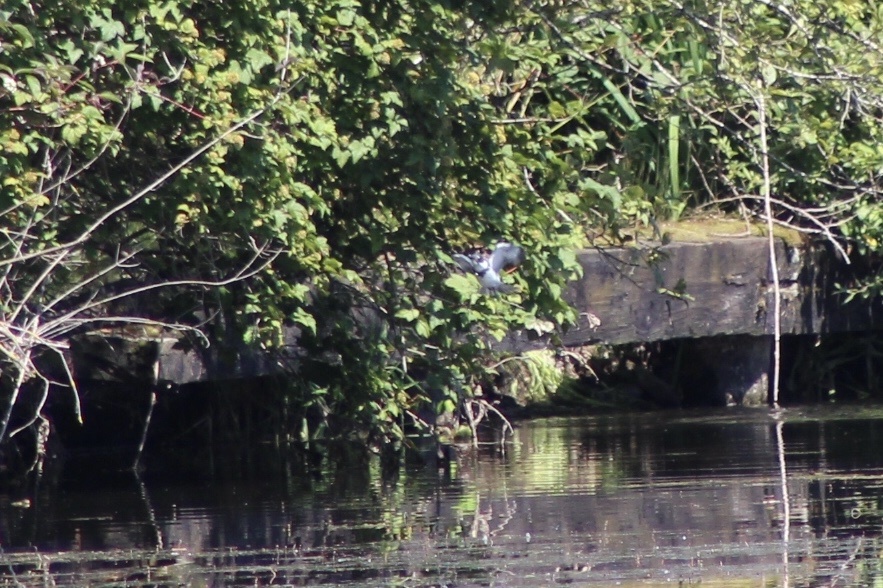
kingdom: Animalia
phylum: Chordata
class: Aves
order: Coraciiformes
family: Alcedinidae
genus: Megaceryle
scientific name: Megaceryle alcyon
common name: Belted kingfisher
